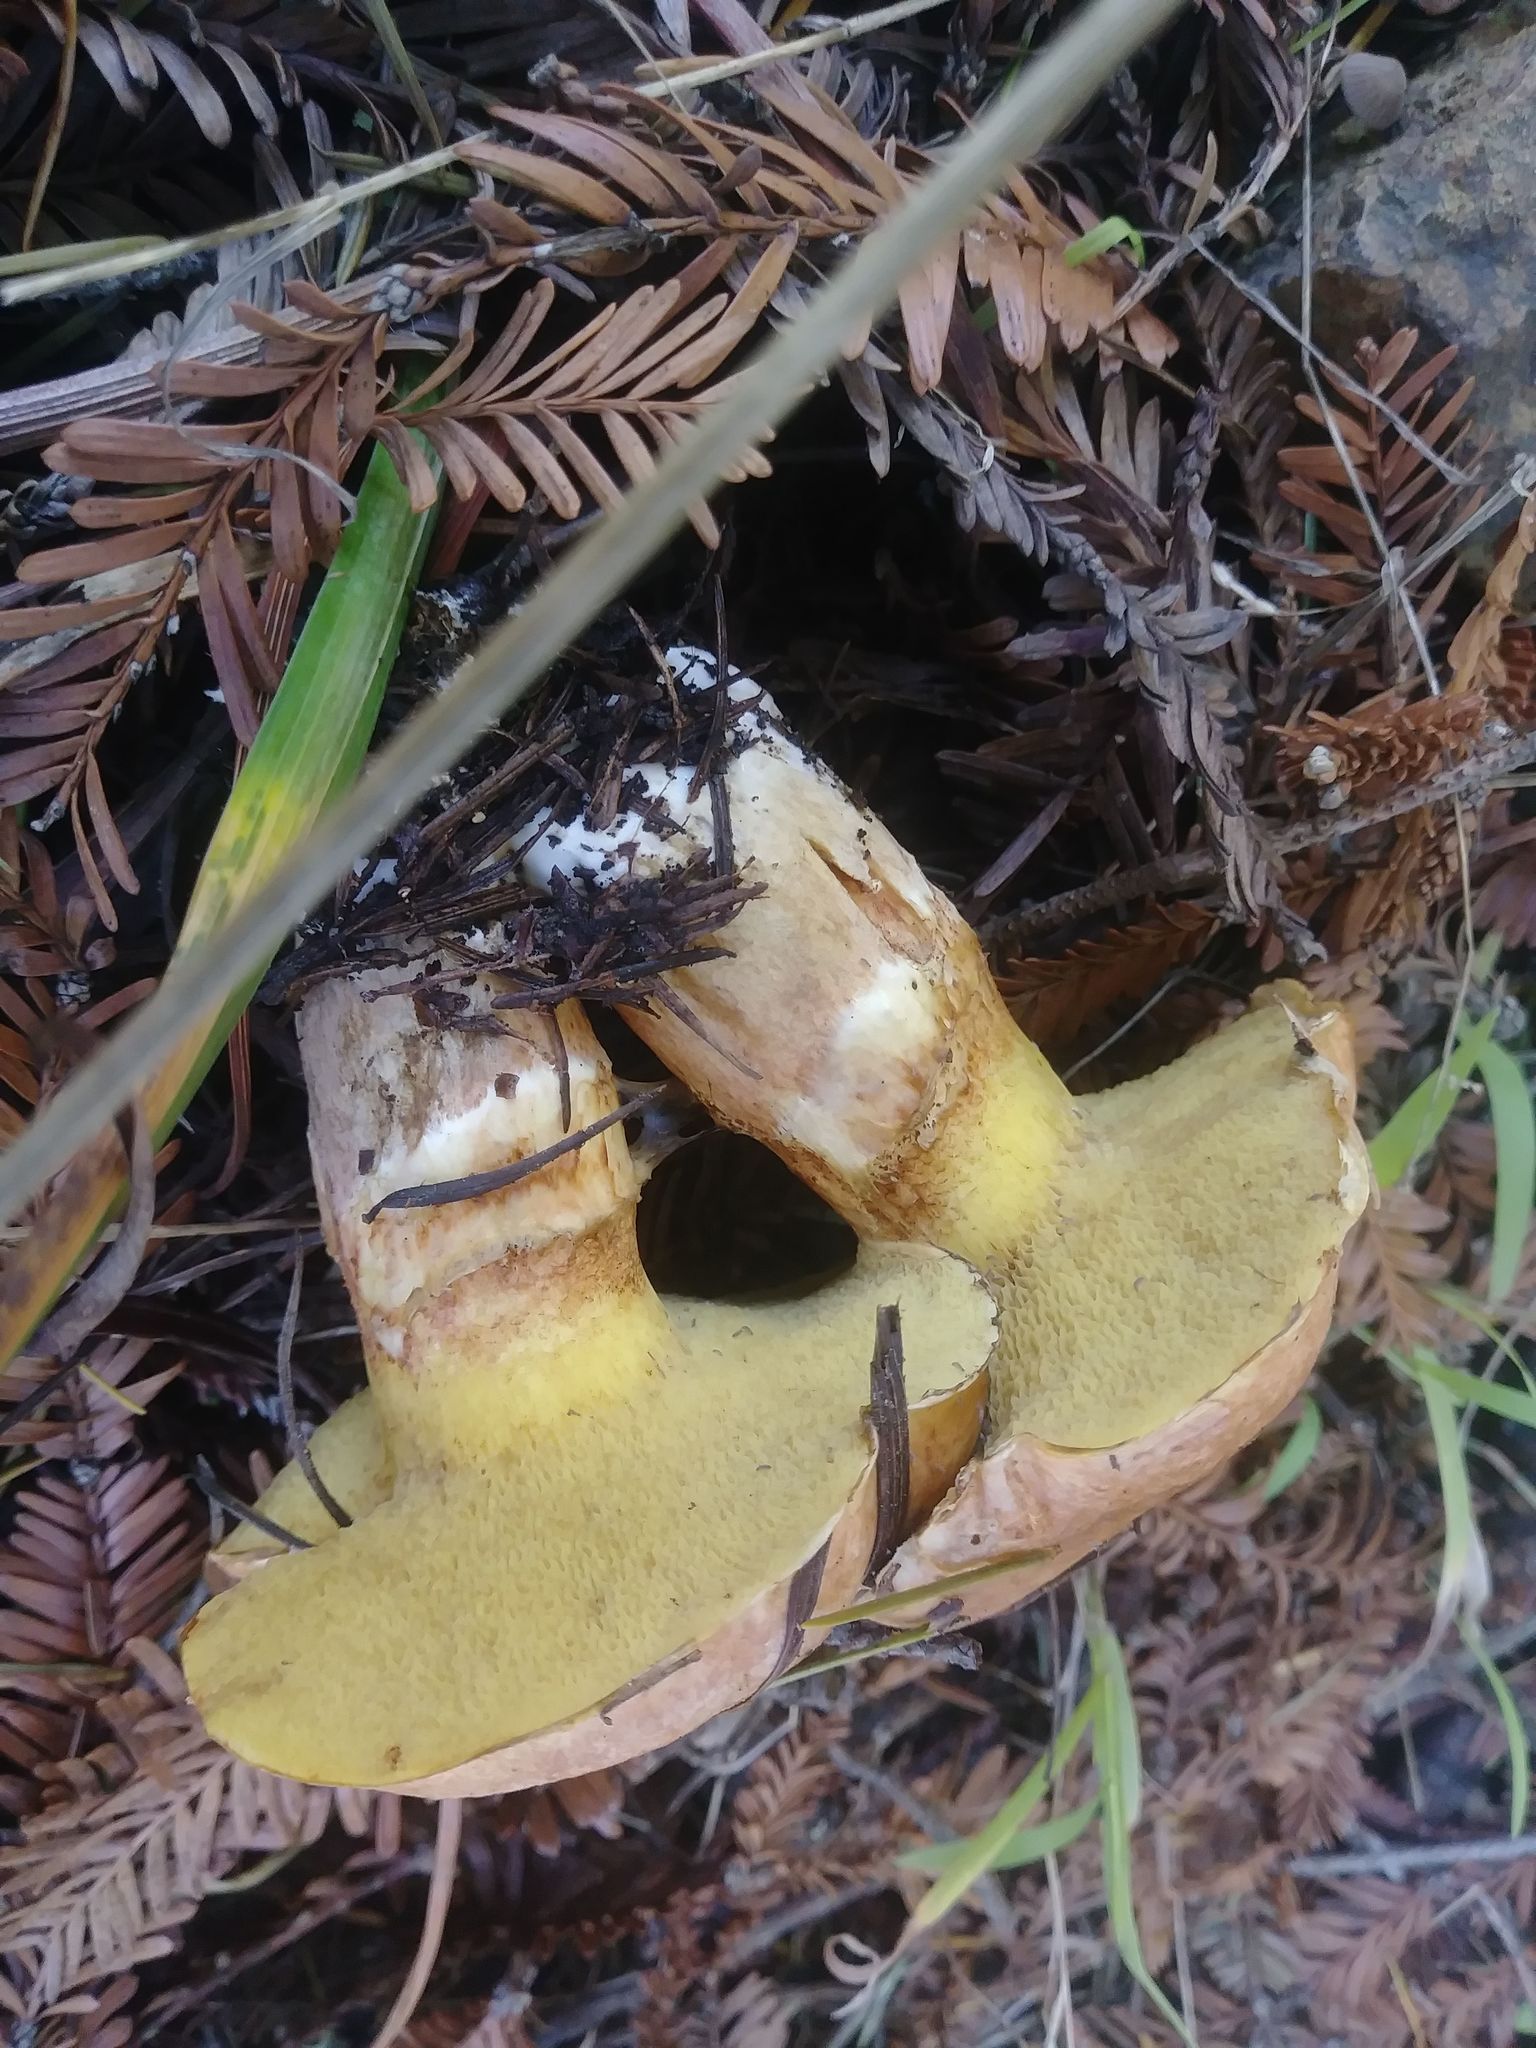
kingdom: Fungi
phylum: Basidiomycota
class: Agaricomycetes
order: Boletales
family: Suillaceae
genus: Suillus
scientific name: Suillus caerulescens
